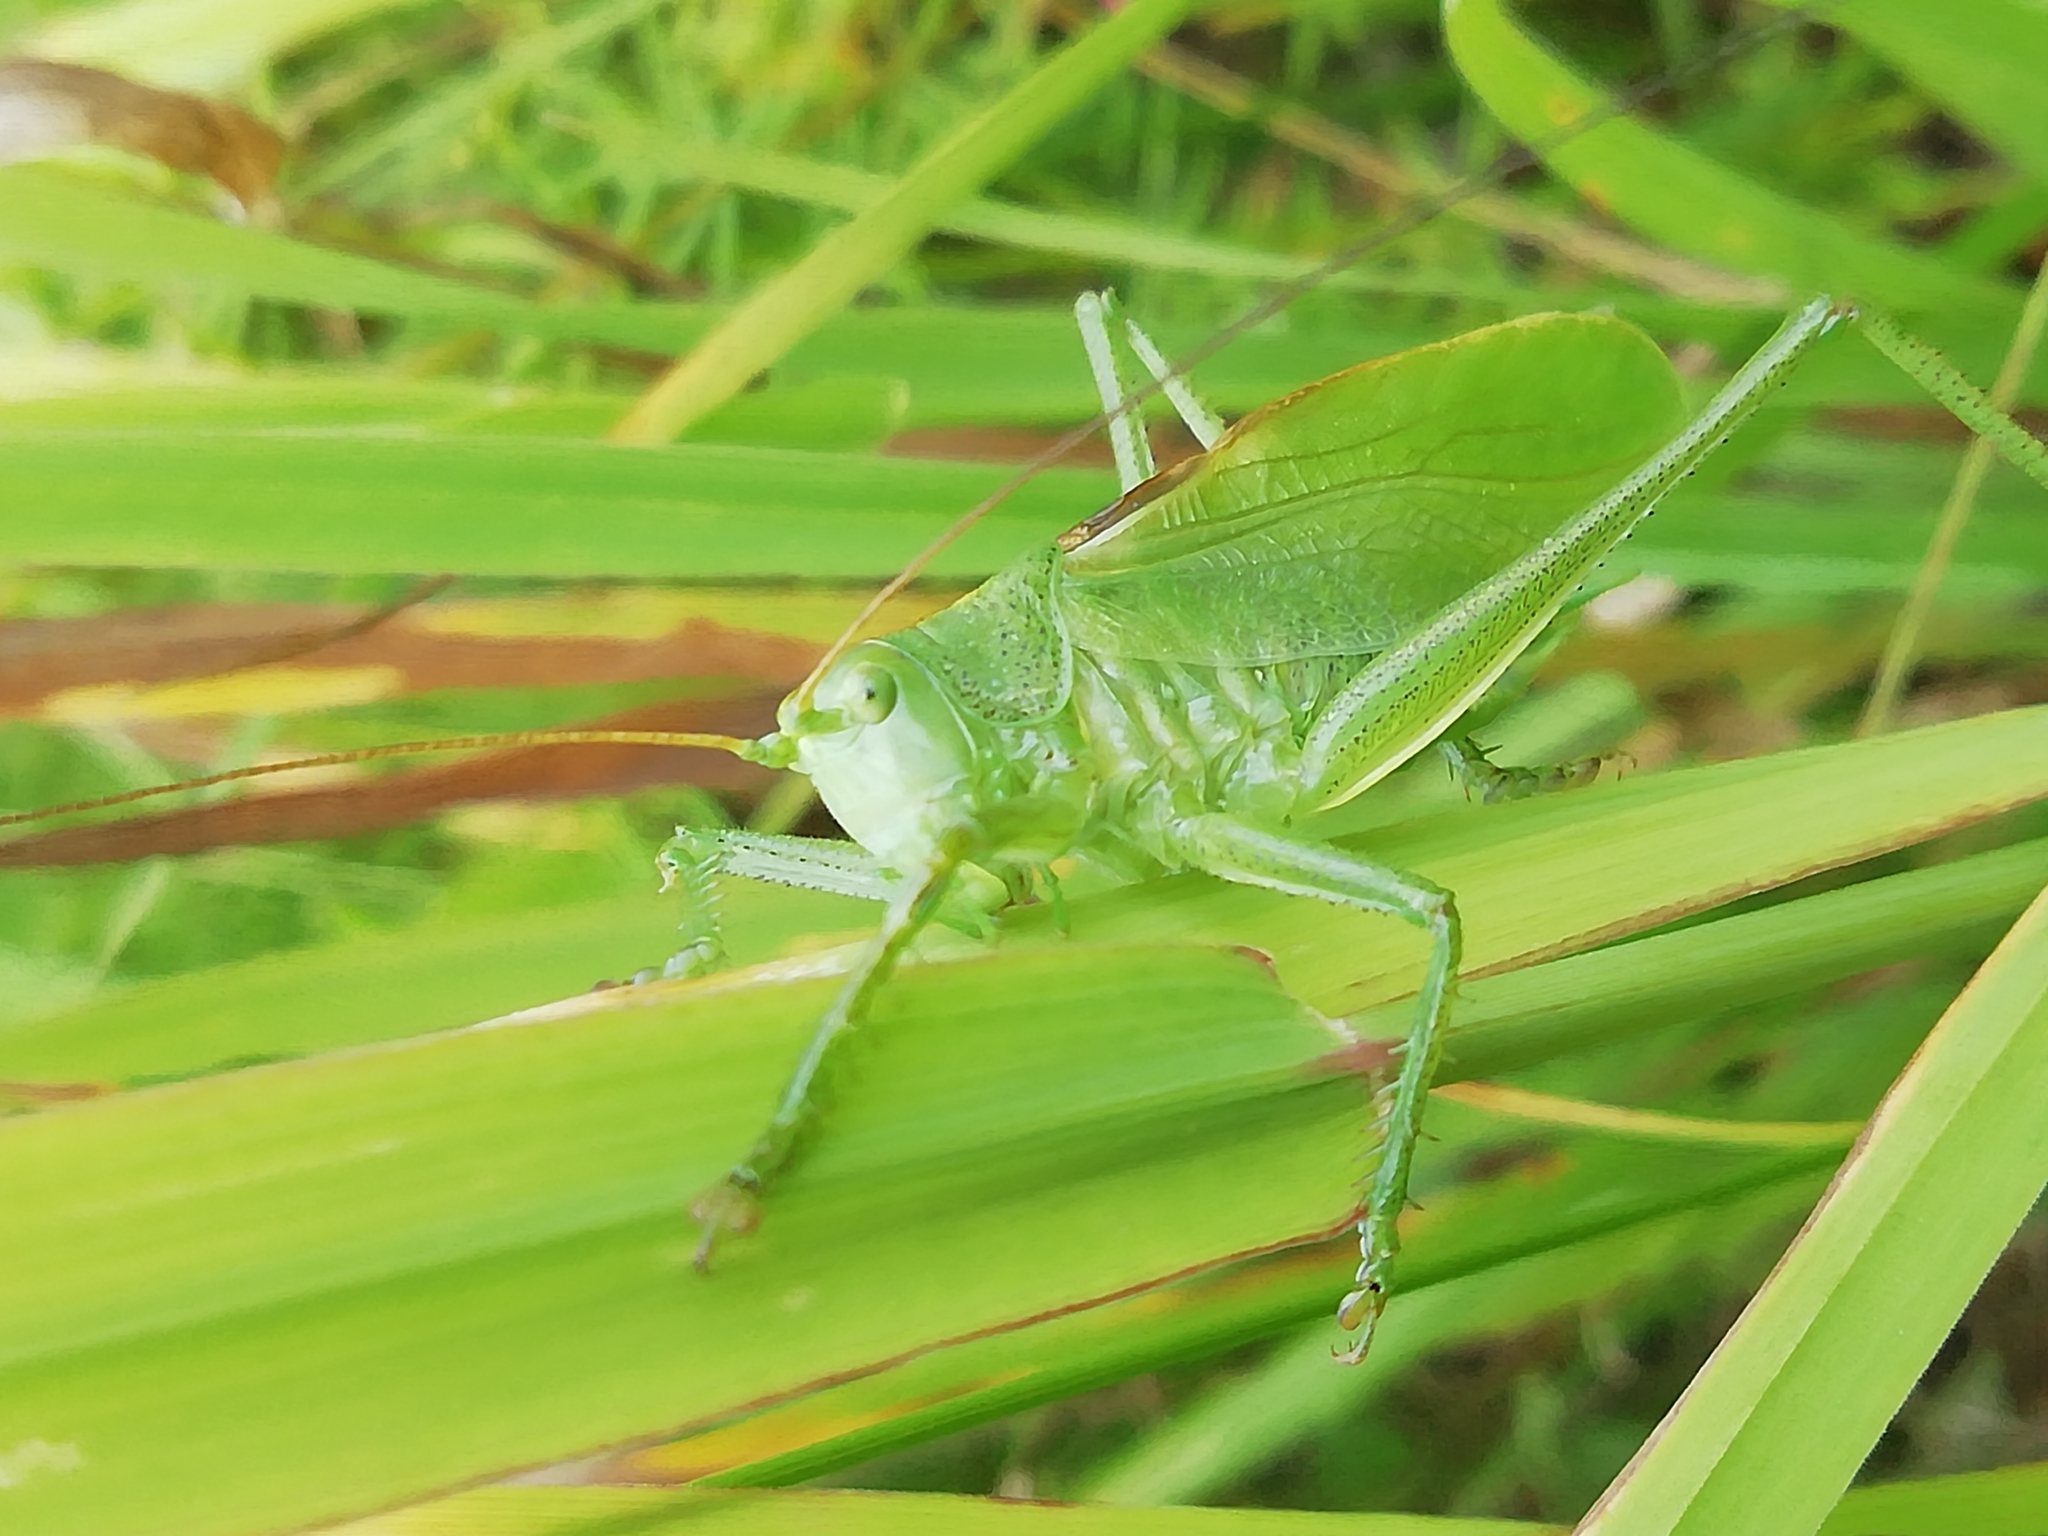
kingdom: Animalia
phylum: Arthropoda
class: Insecta
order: Orthoptera
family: Tettigoniidae
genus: Tettigonia
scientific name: Tettigonia cantans
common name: Upland green bush-cricket
